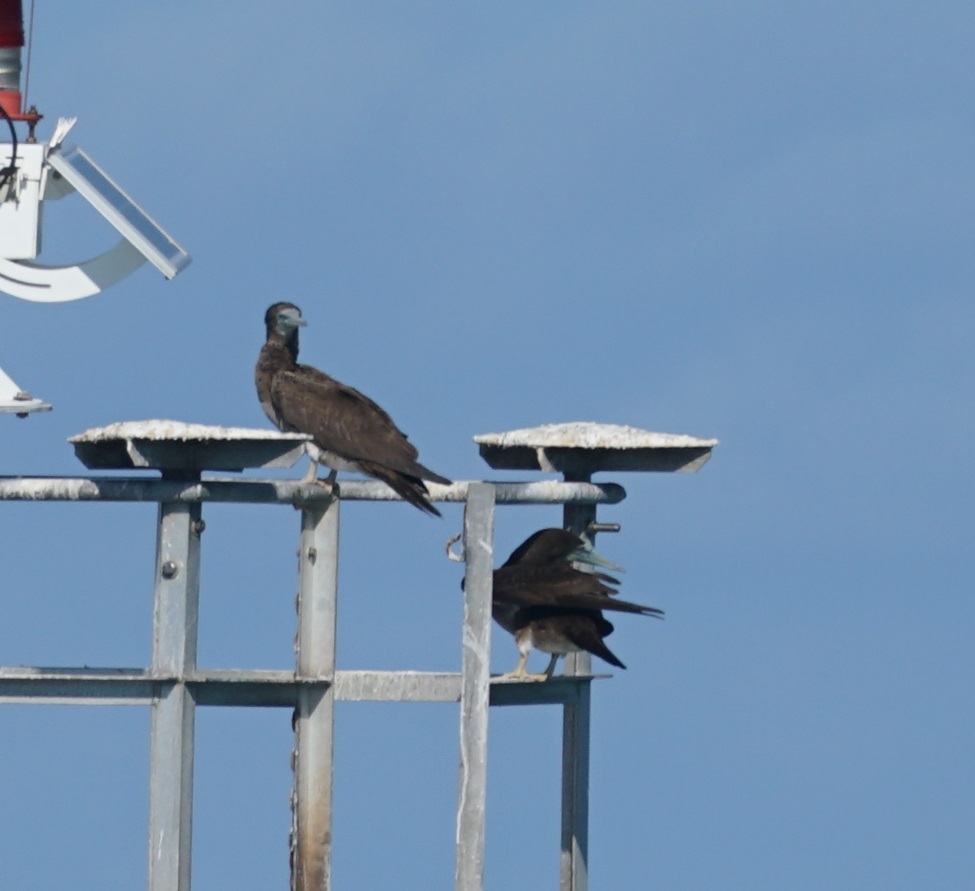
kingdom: Animalia
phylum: Chordata
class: Aves
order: Suliformes
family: Sulidae
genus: Sula
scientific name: Sula leucogaster
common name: Brown booby
